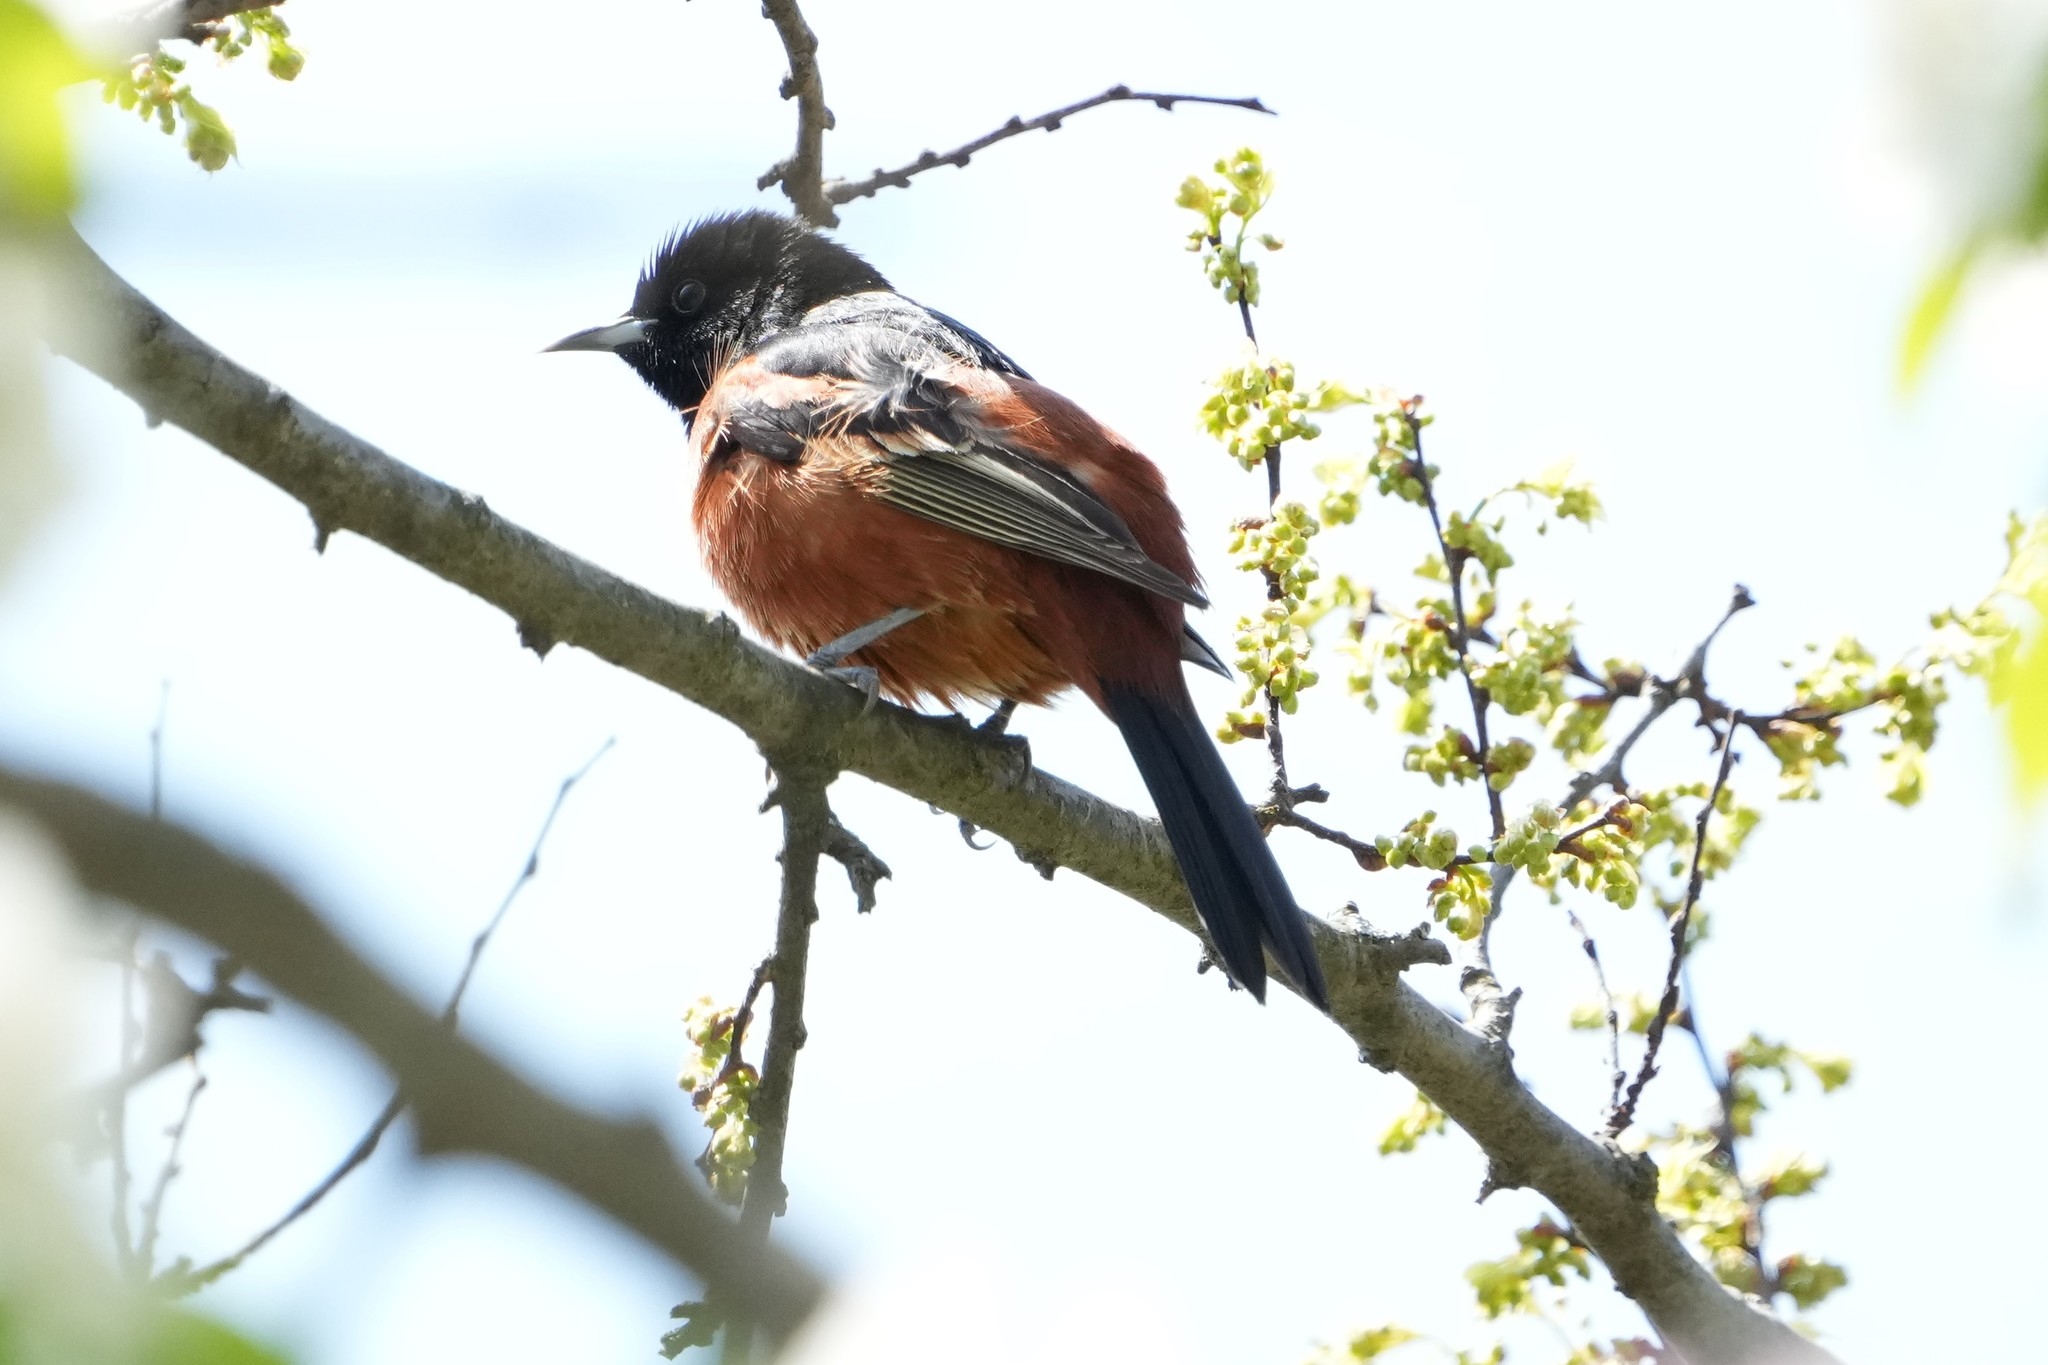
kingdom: Animalia
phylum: Chordata
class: Aves
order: Passeriformes
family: Icteridae
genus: Icterus
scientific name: Icterus spurius
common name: Orchard oriole
